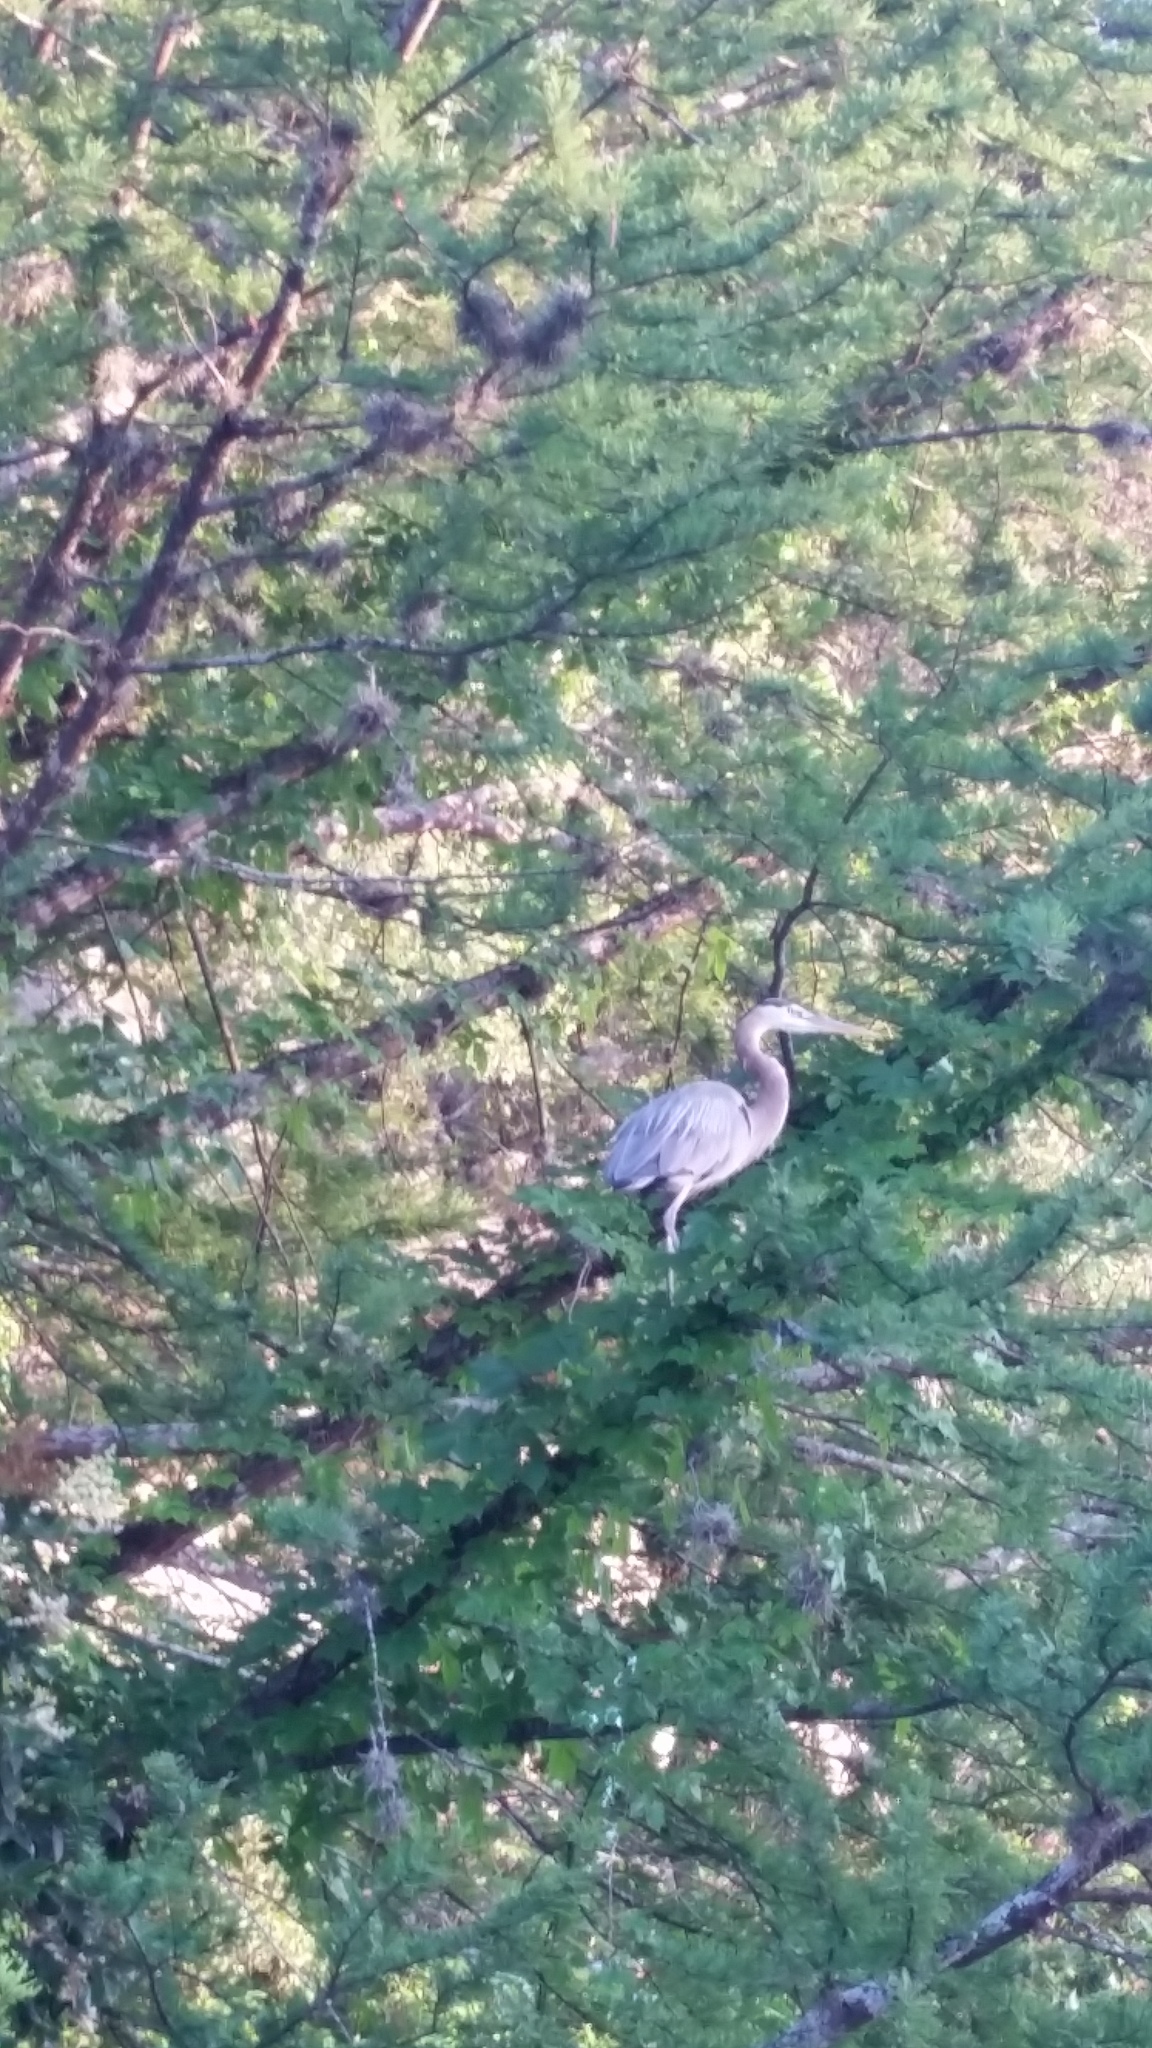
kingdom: Animalia
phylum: Chordata
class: Aves
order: Pelecaniformes
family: Ardeidae
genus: Ardea
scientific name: Ardea herodias
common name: Great blue heron
